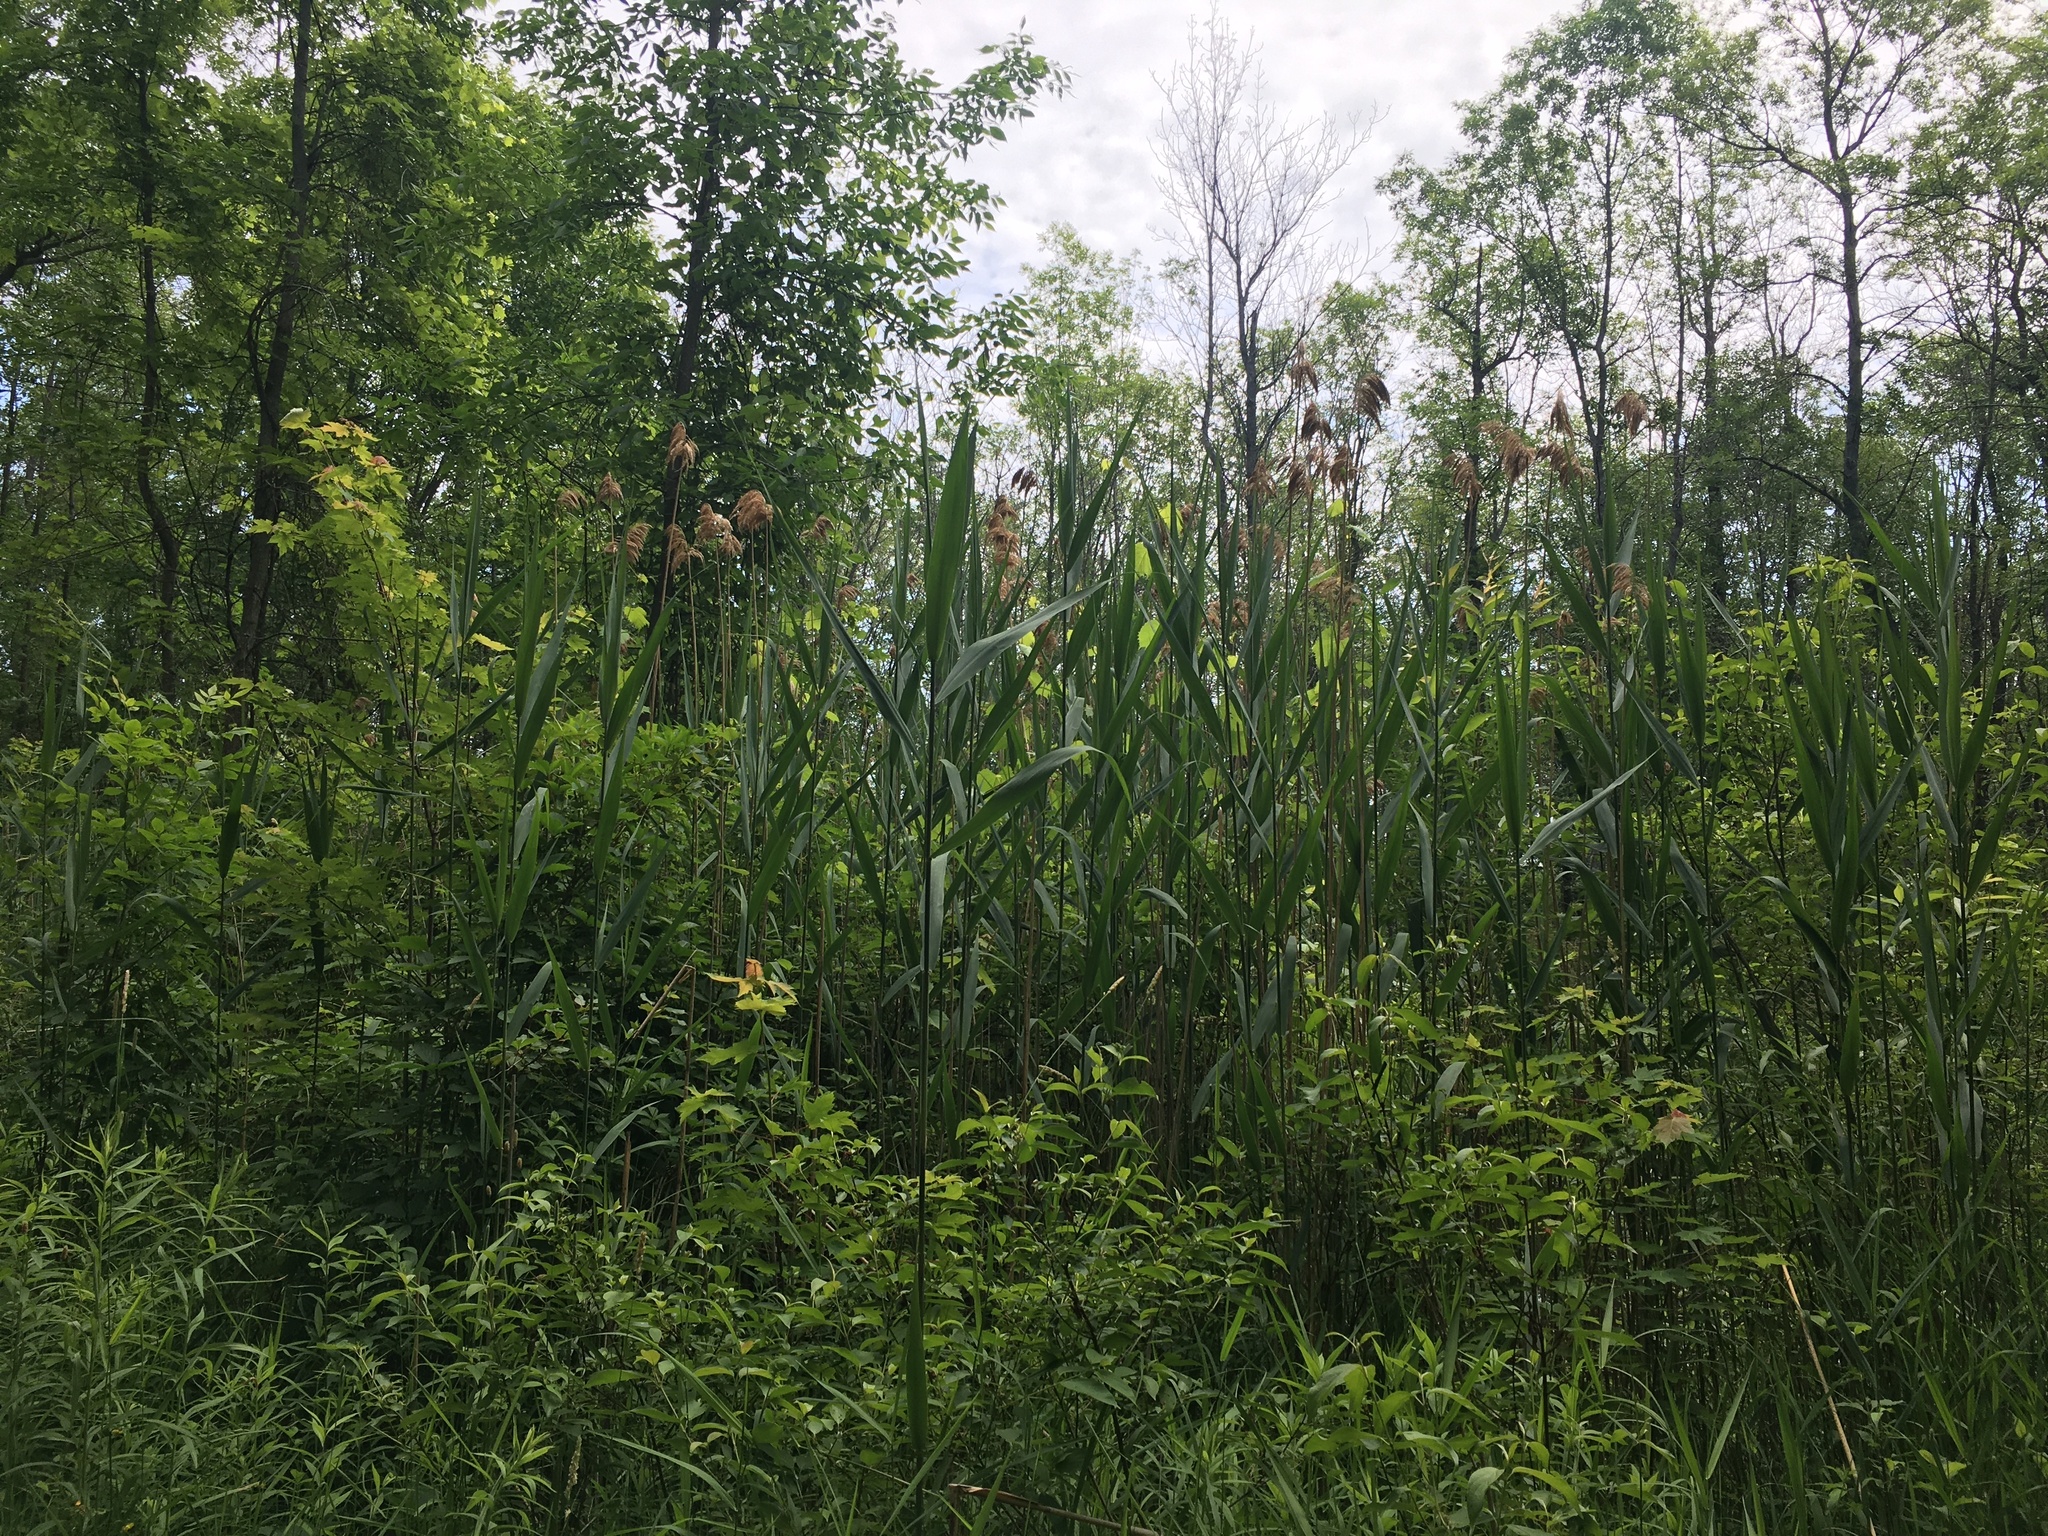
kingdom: Plantae
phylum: Tracheophyta
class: Liliopsida
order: Poales
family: Poaceae
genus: Phragmites
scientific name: Phragmites australis
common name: Common reed
